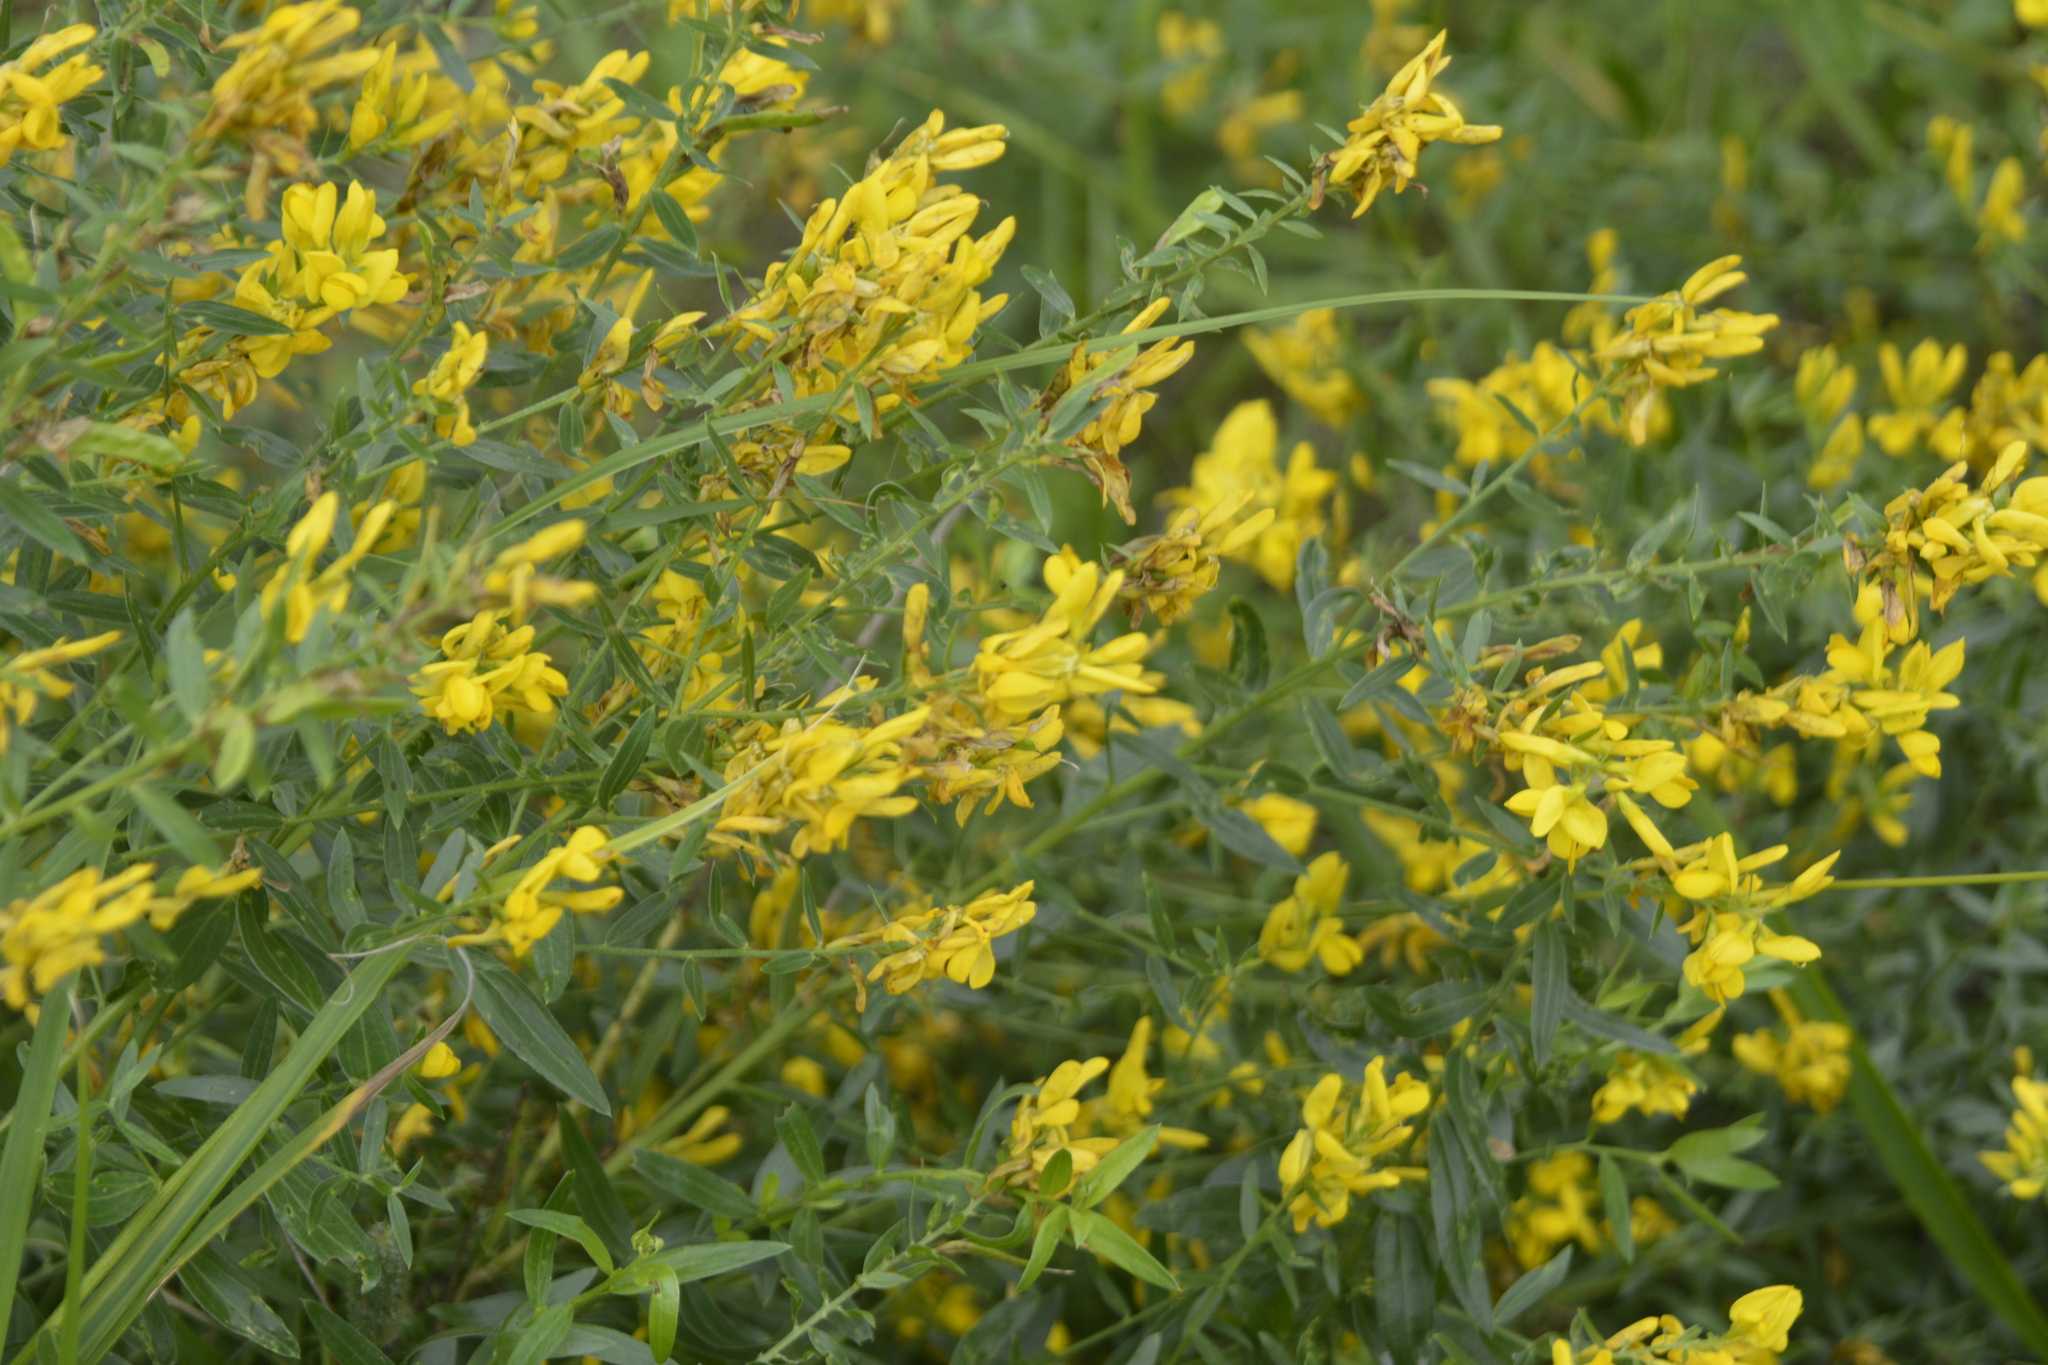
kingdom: Plantae
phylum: Tracheophyta
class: Magnoliopsida
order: Fabales
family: Fabaceae
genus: Genista
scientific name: Genista tinctoria
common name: Dyer's greenweed
